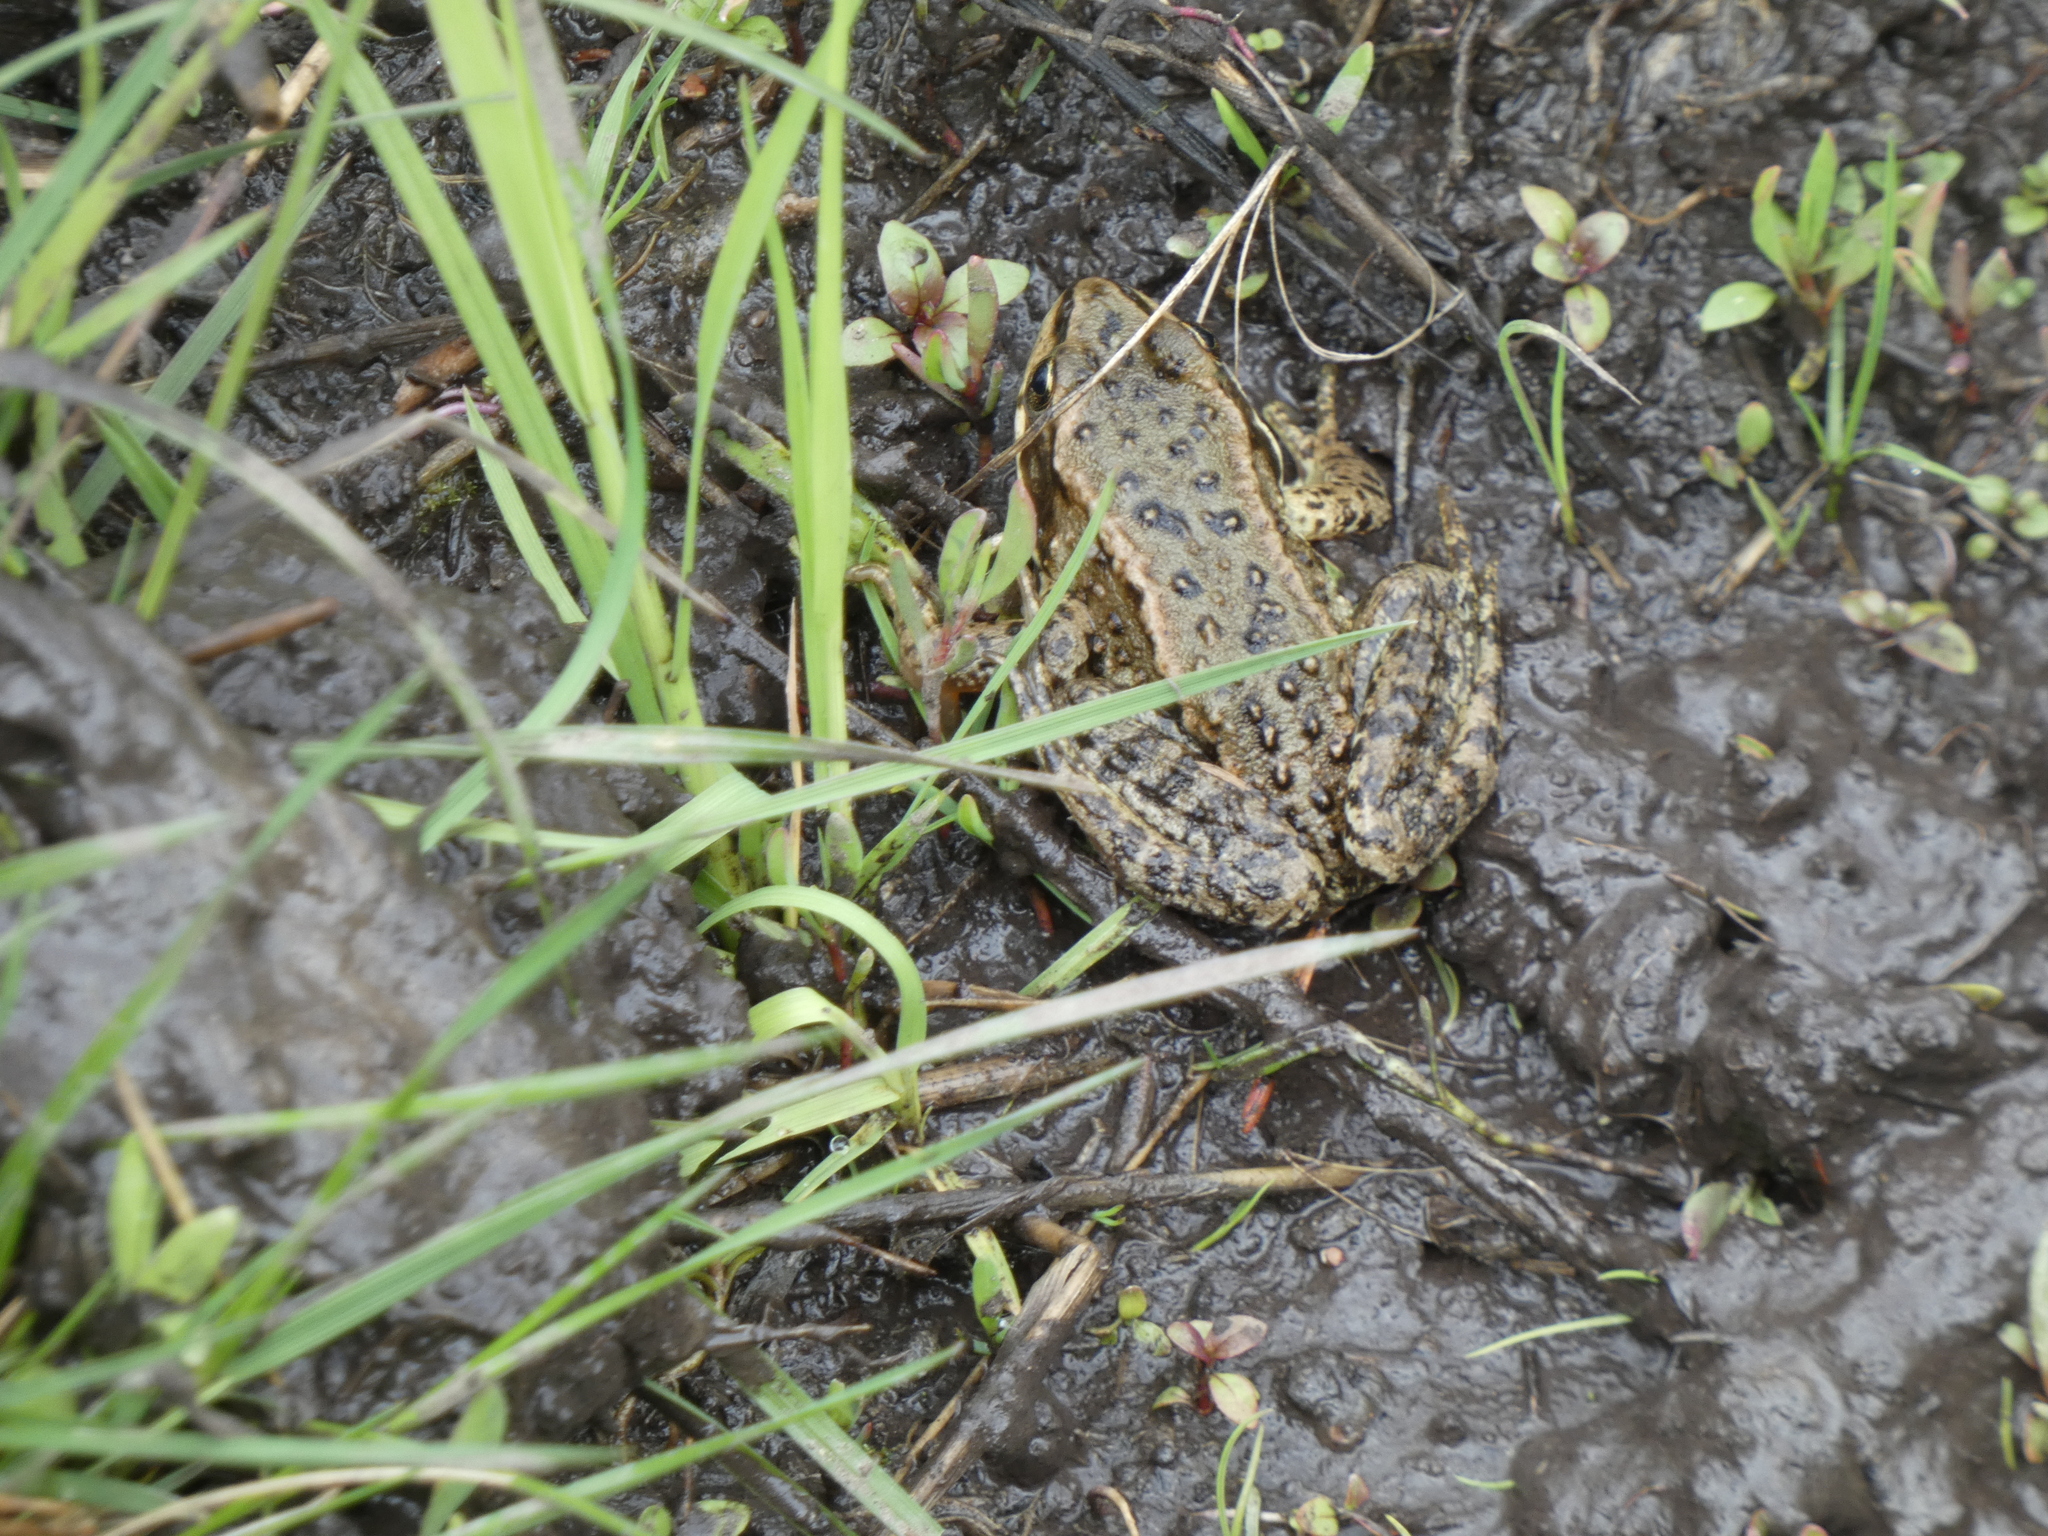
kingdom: Animalia
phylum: Chordata
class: Amphibia
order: Anura
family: Ranidae
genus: Rana
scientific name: Rana luteiventris
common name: Columbia spotted frog
